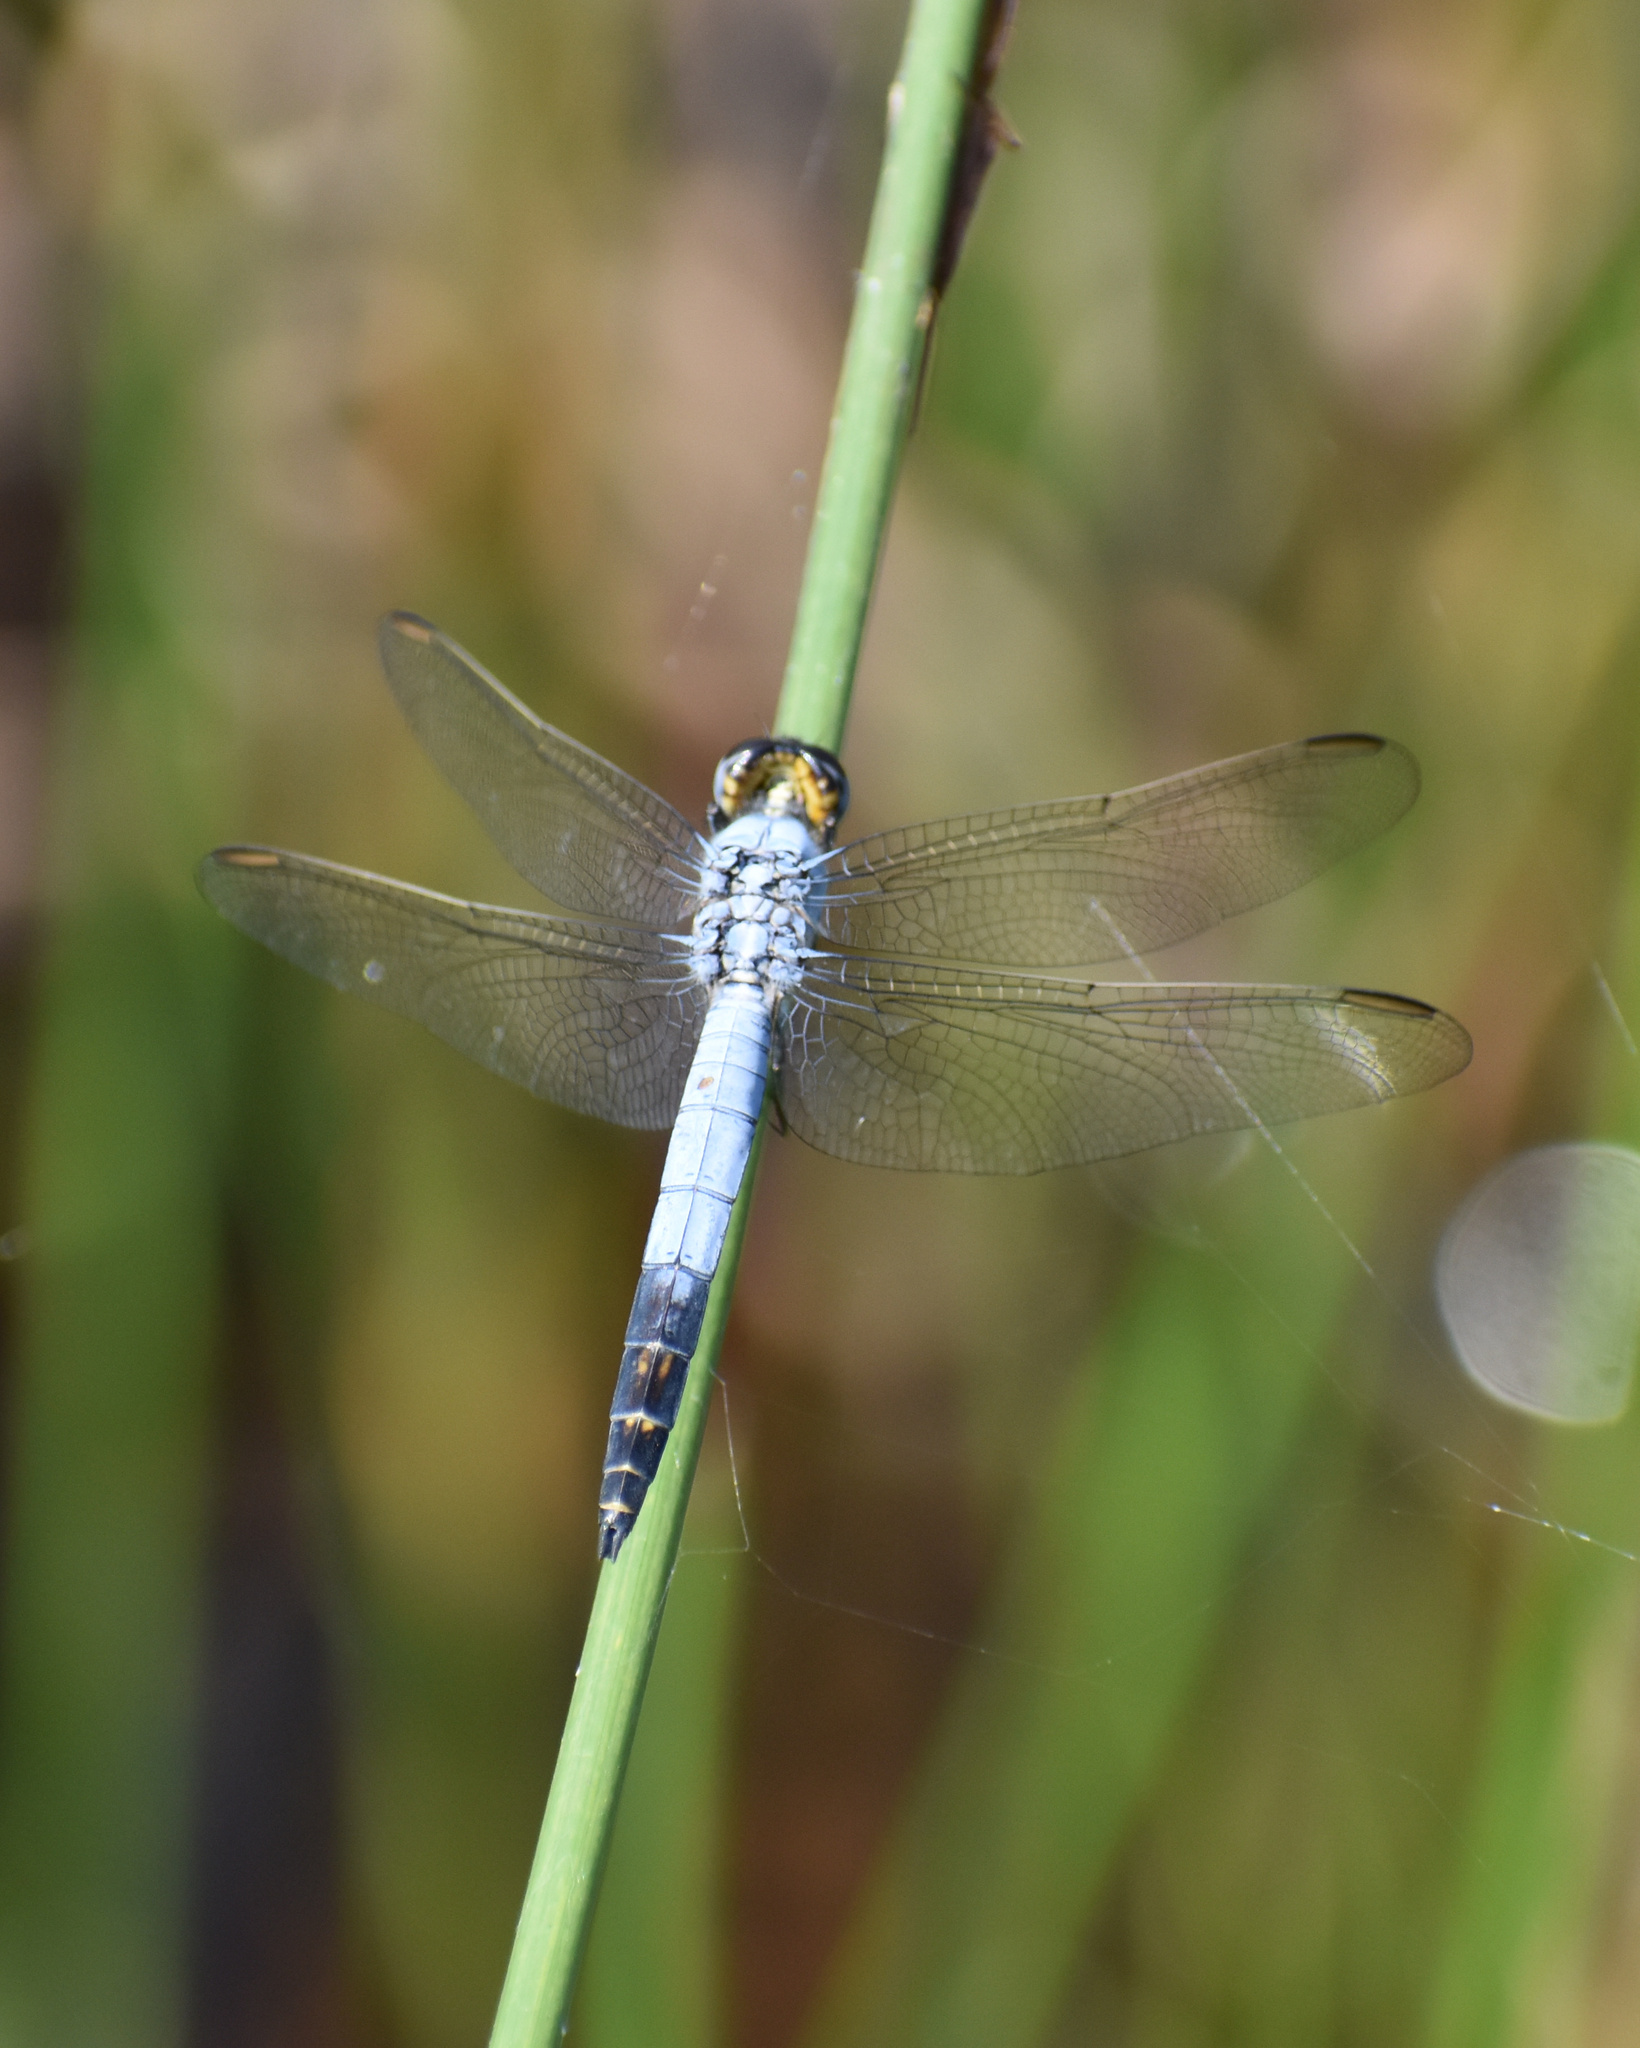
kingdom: Animalia
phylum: Arthropoda
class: Insecta
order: Odonata
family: Libellulidae
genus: Nesciothemis
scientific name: Nesciothemis farinosa
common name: Eastern blacktail
